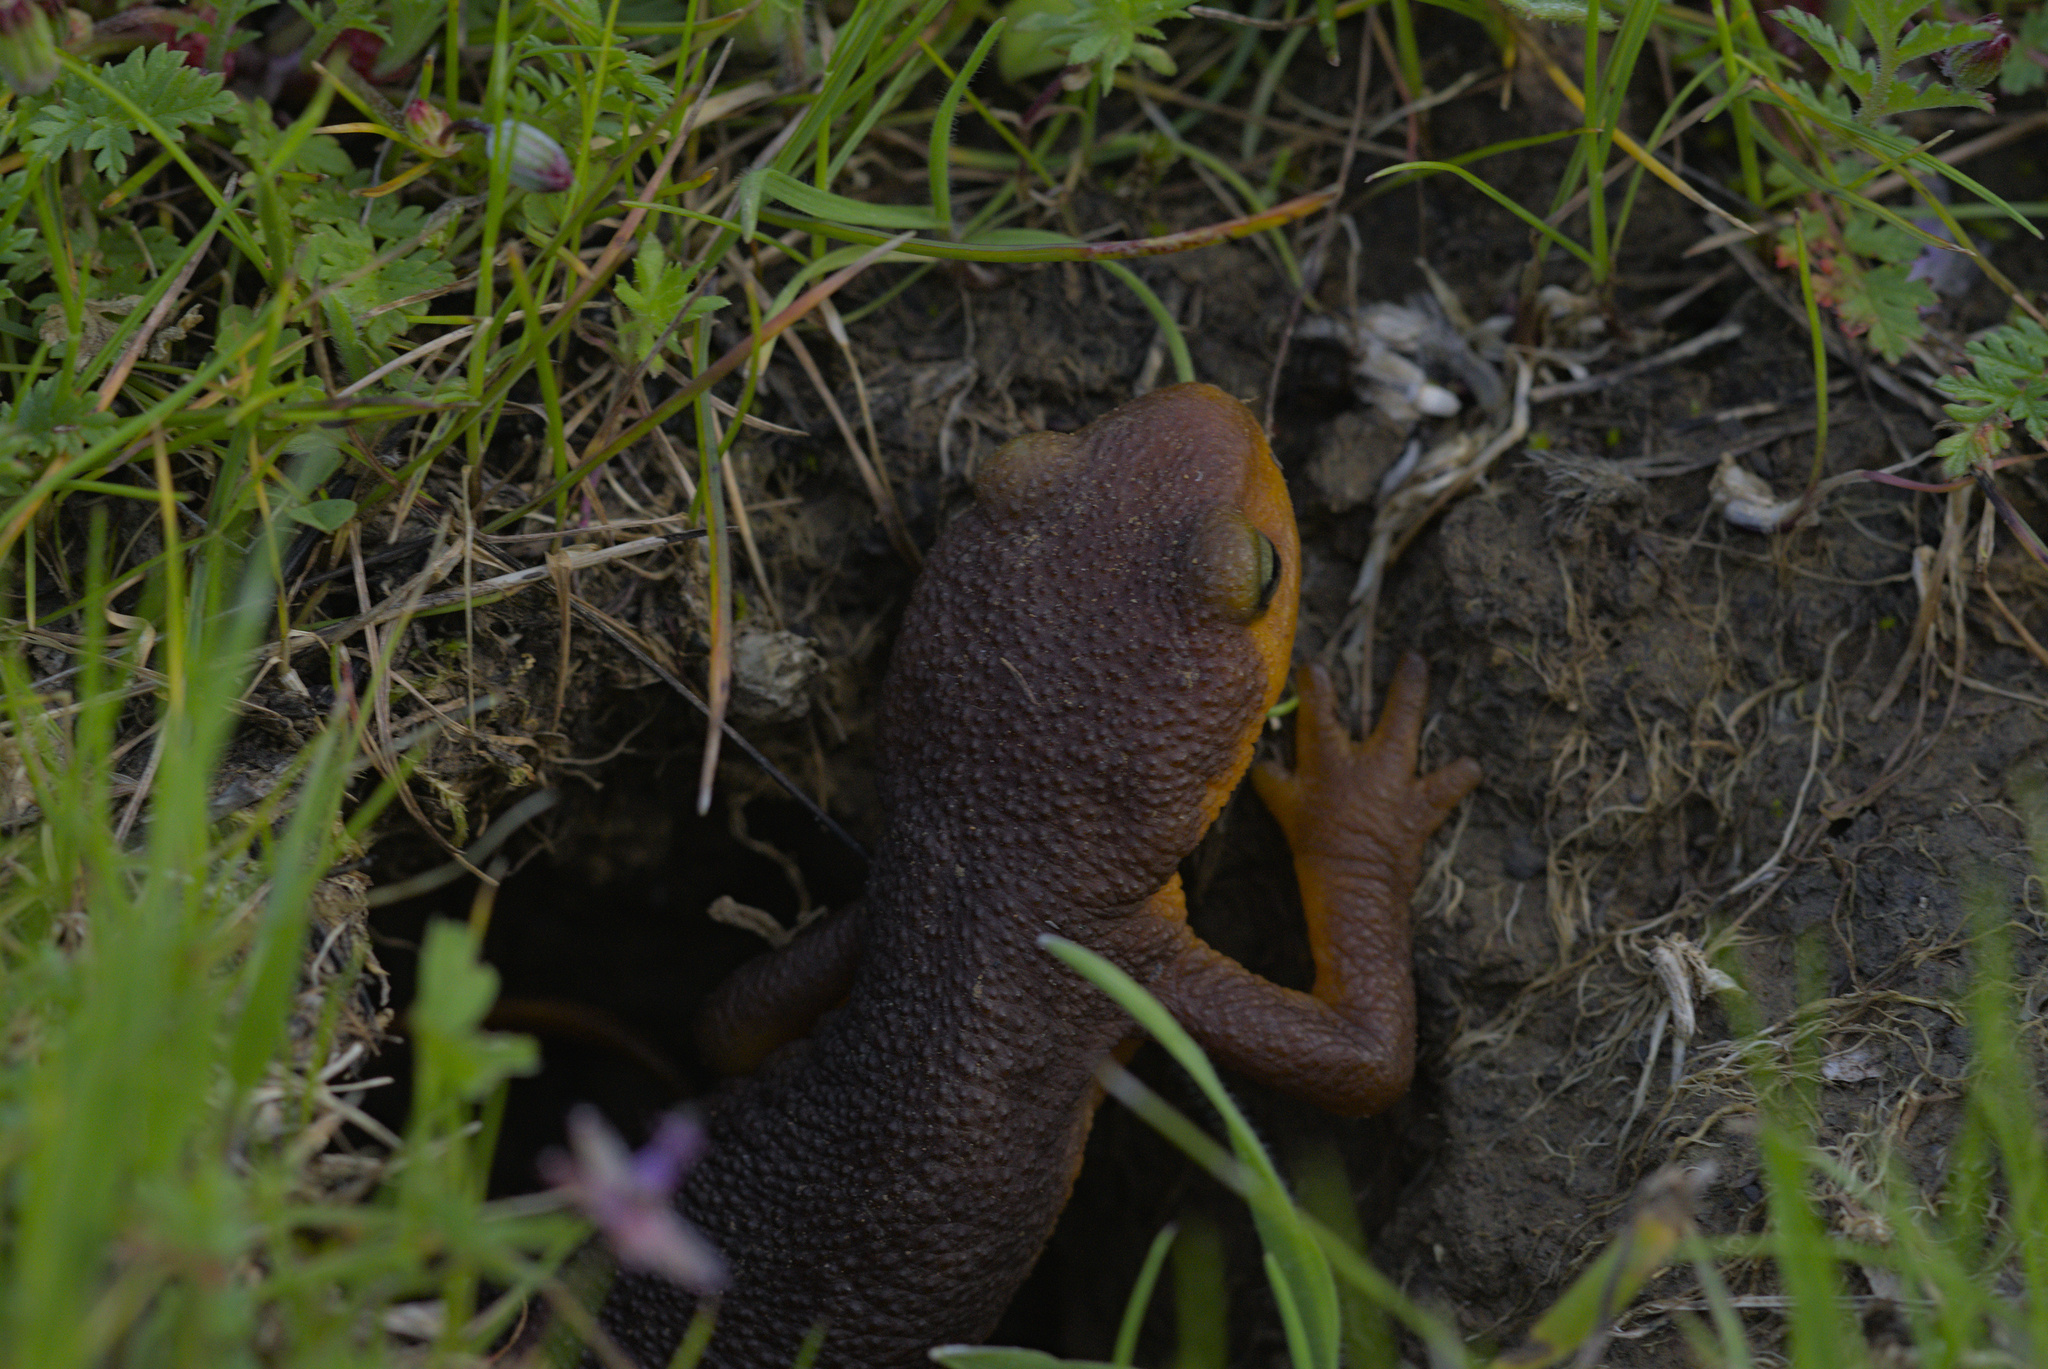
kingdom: Animalia
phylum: Chordata
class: Amphibia
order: Caudata
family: Salamandridae
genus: Taricha
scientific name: Taricha torosa
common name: California newt
